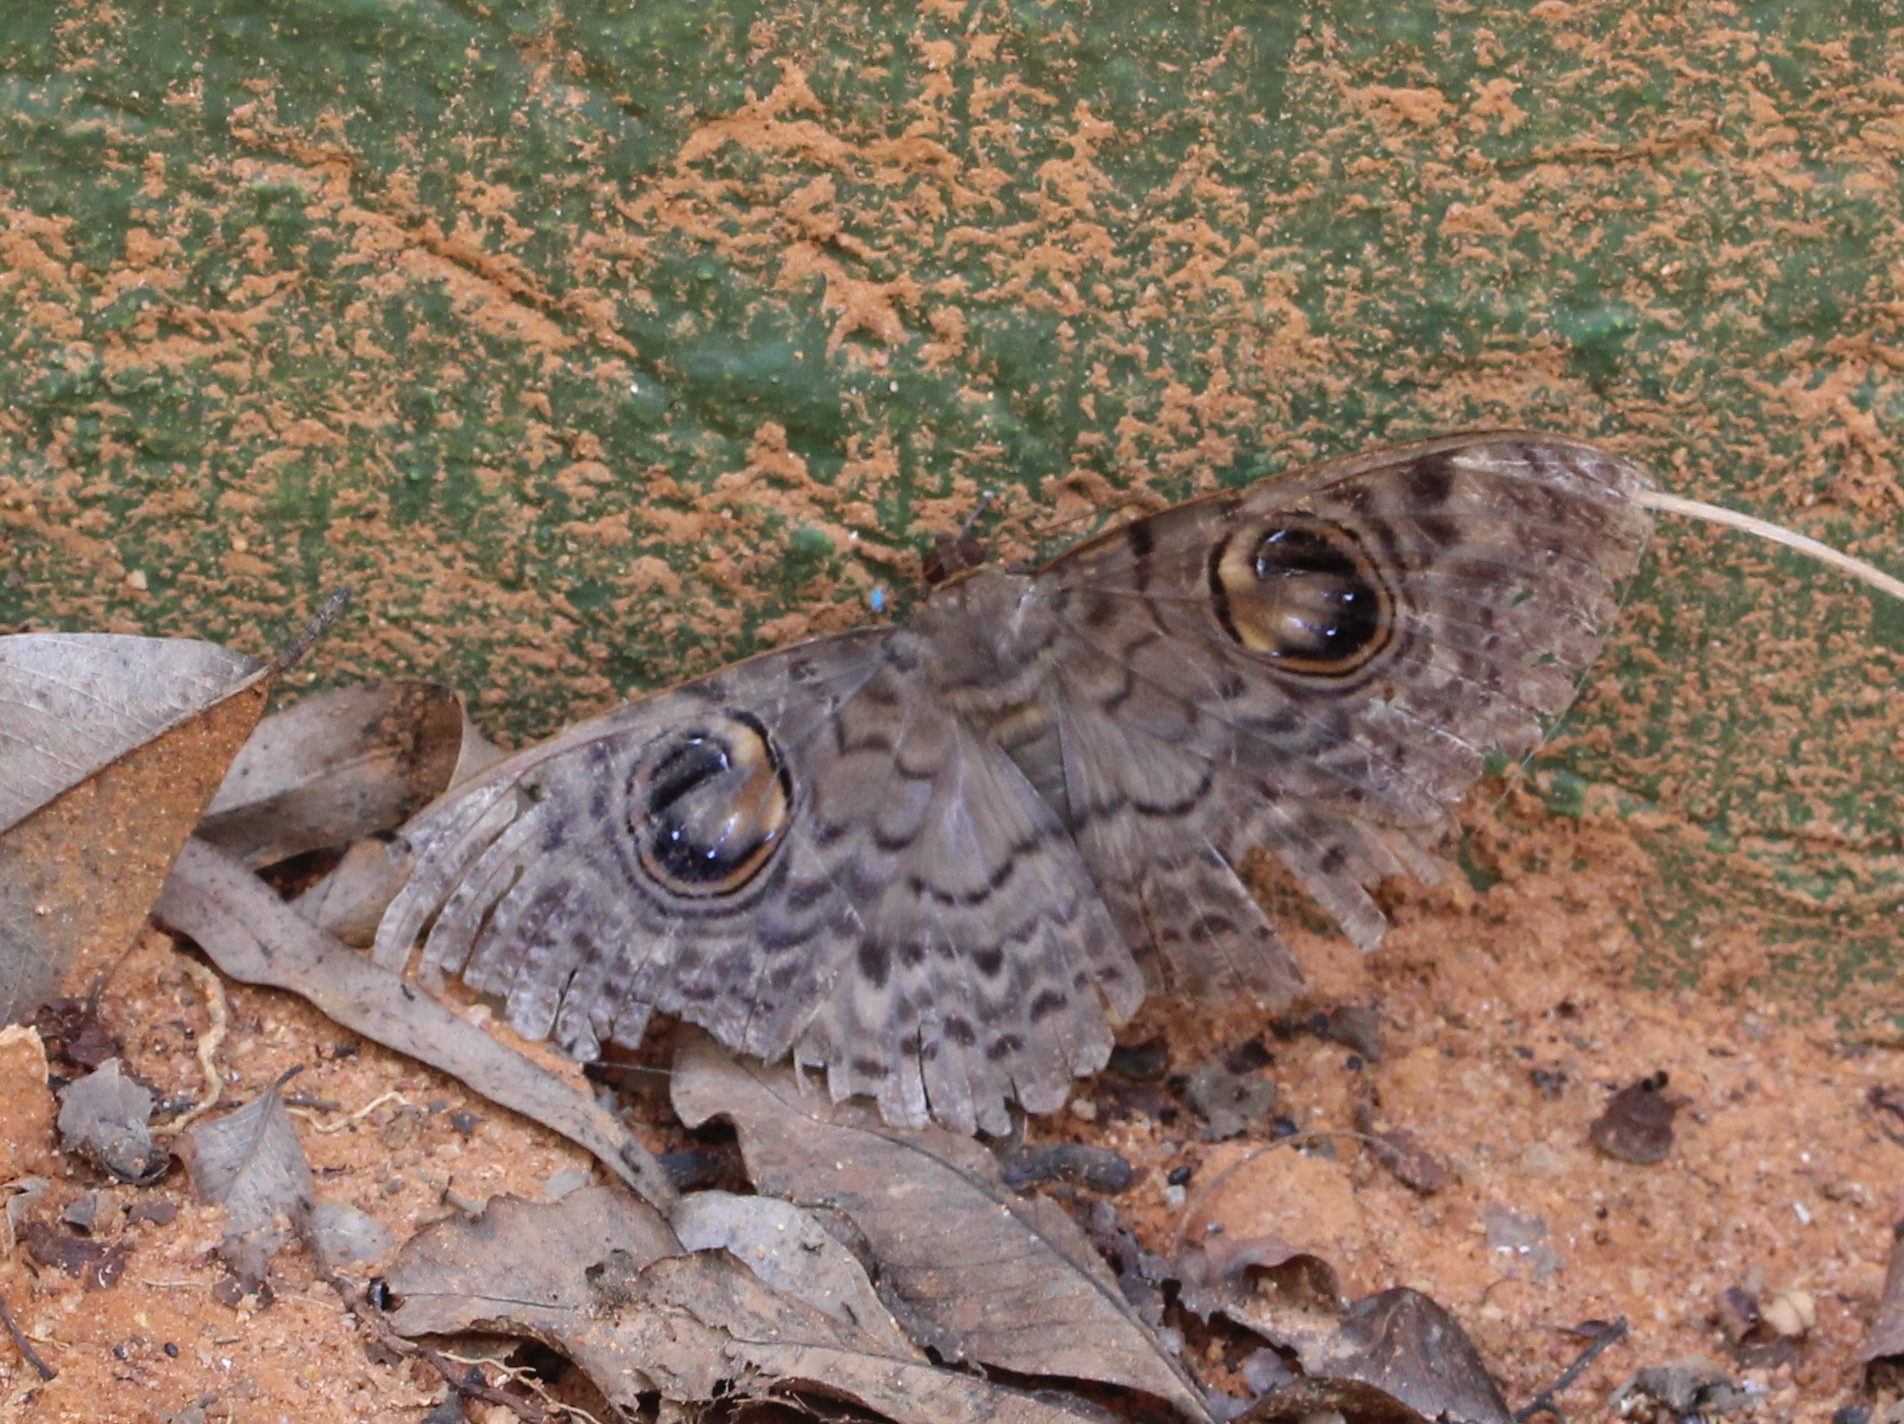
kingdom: Animalia
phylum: Arthropoda
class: Insecta
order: Lepidoptera
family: Erebidae
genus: Erebus
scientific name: Erebus macrops
